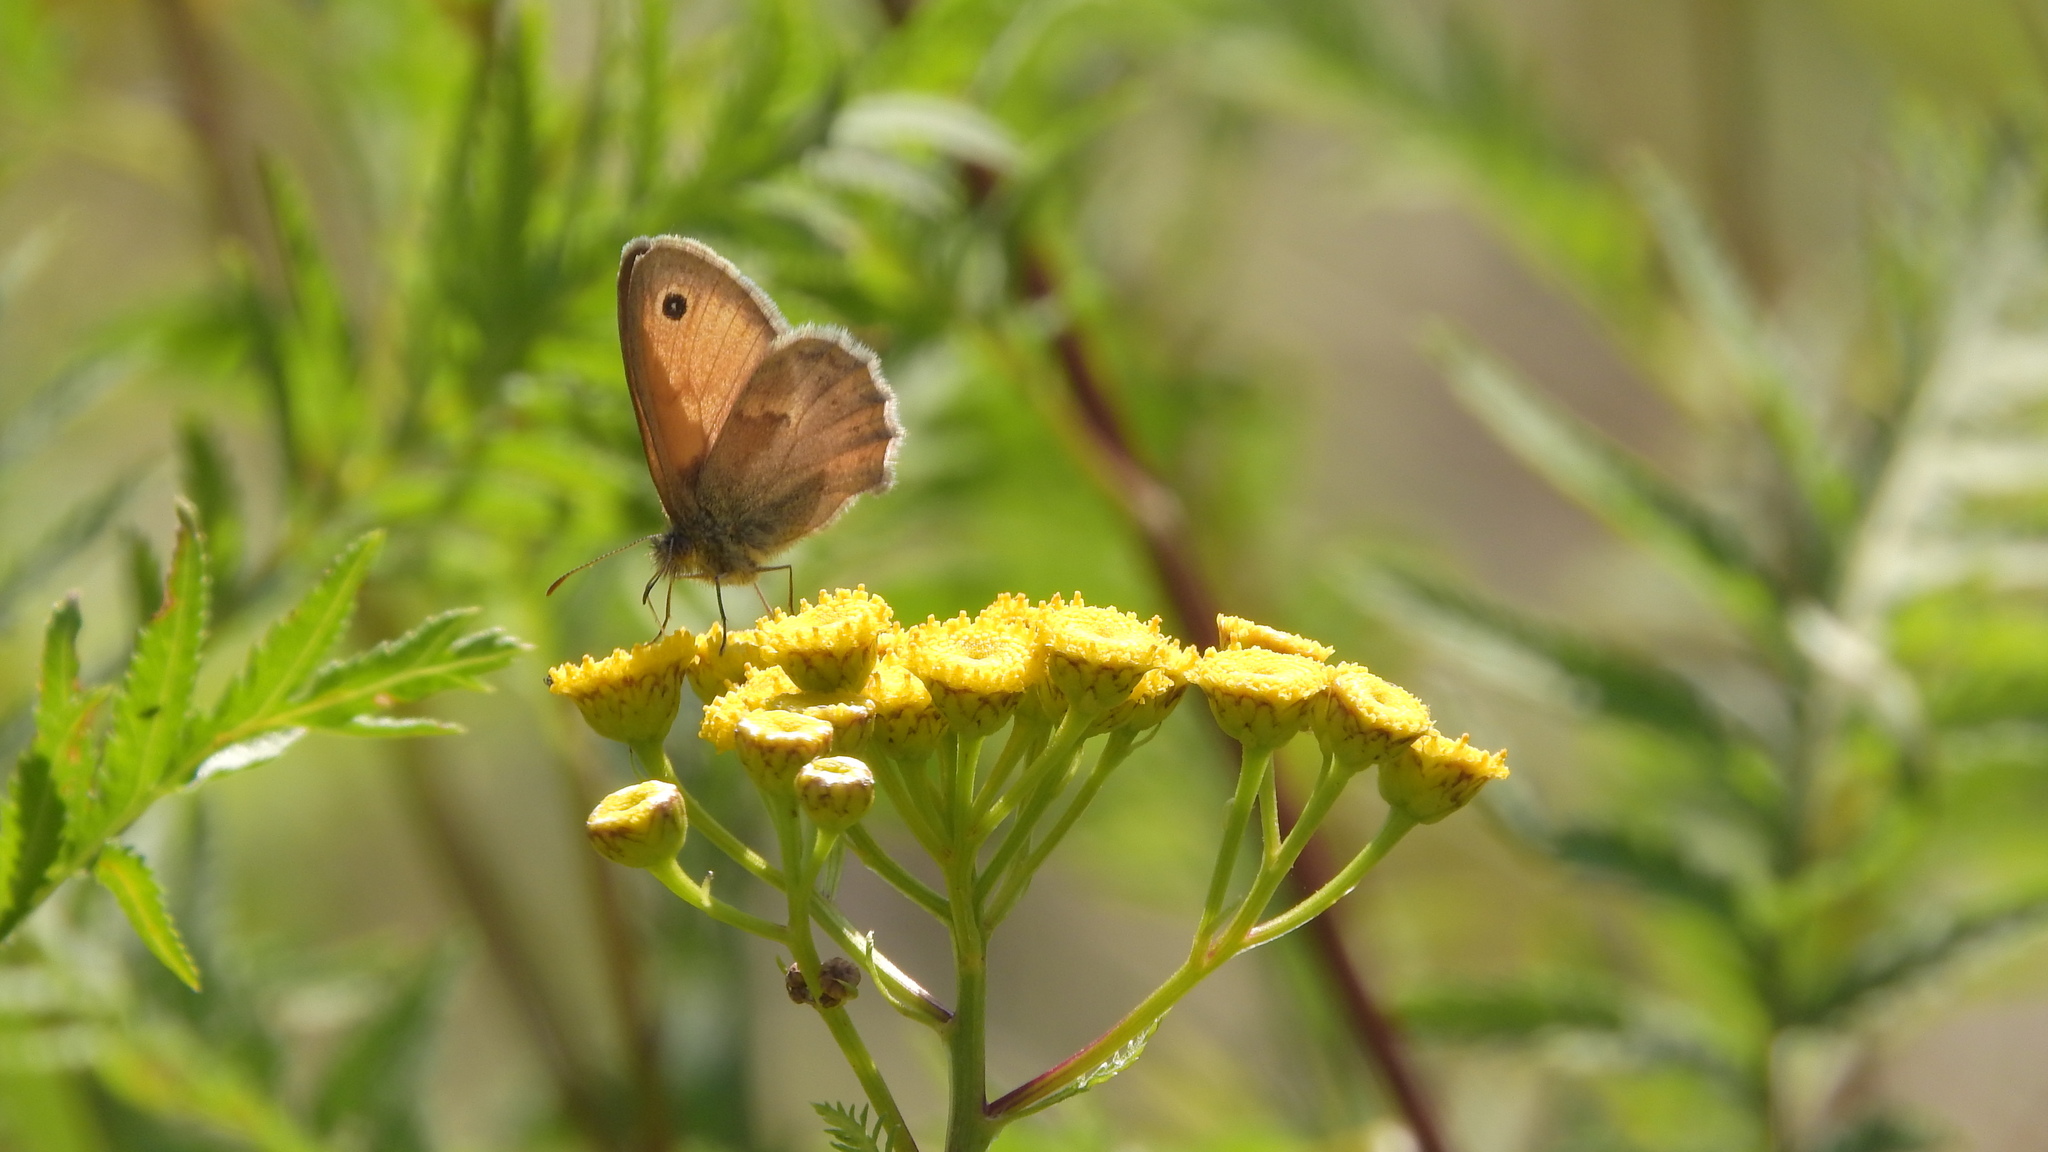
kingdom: Animalia
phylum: Arthropoda
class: Insecta
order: Lepidoptera
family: Nymphalidae
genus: Coenonympha
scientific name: Coenonympha pamphilus
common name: Small heath
